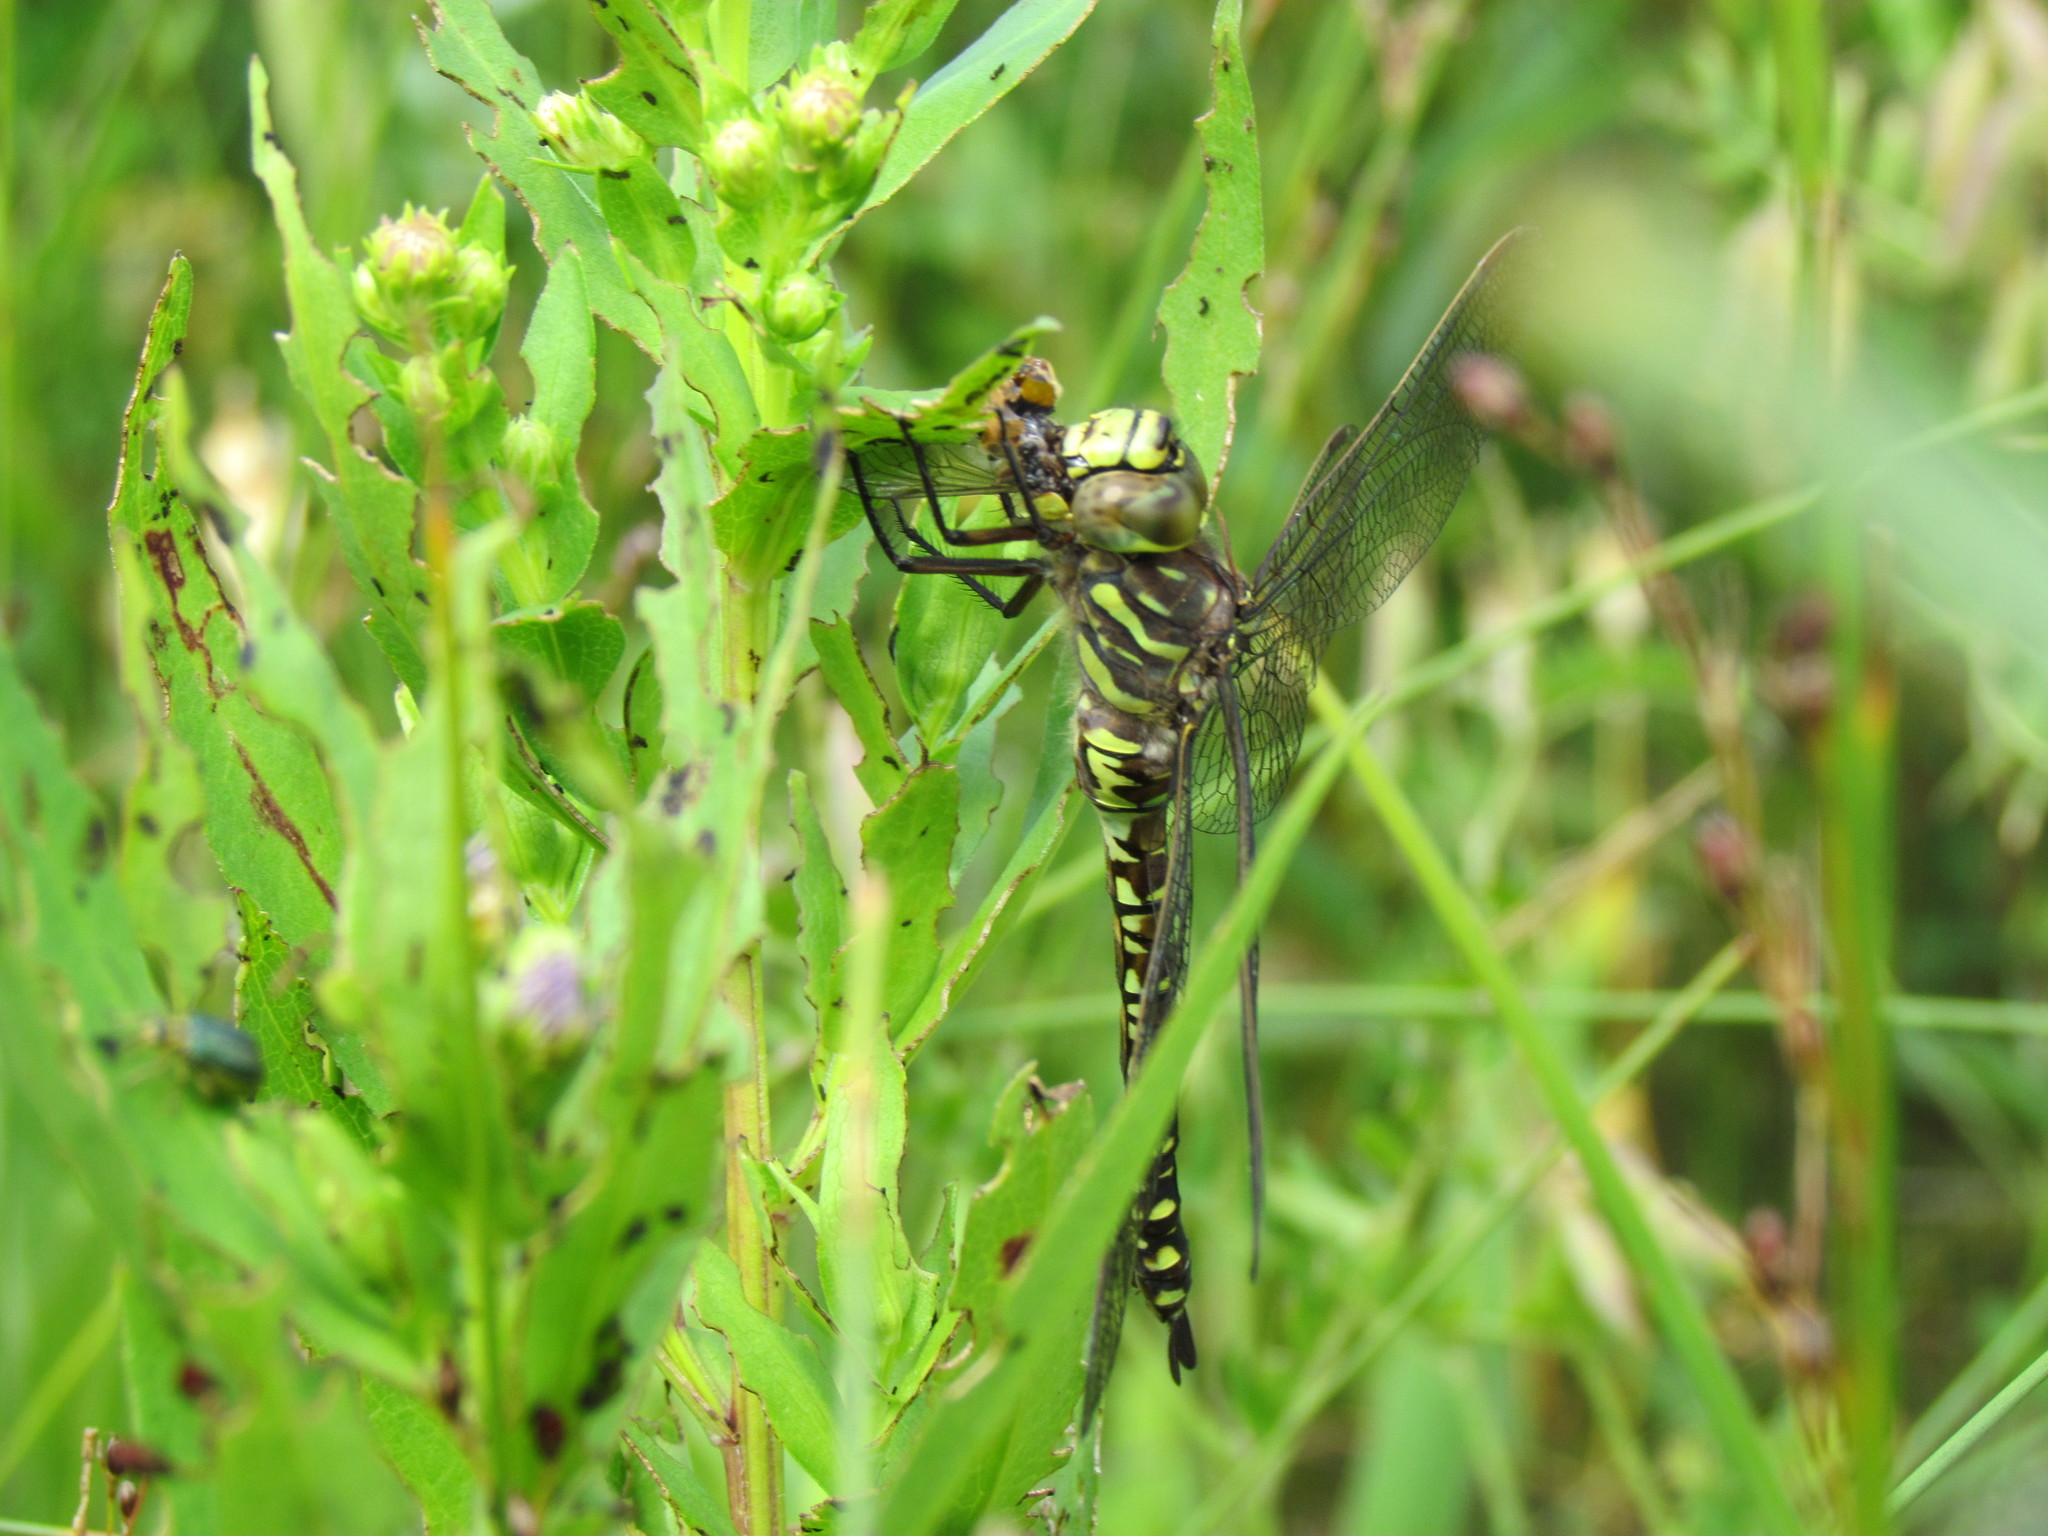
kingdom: Animalia
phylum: Arthropoda
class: Insecta
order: Odonata
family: Aeshnidae
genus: Aeshna
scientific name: Aeshna subarctica
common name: Subarctic darner
